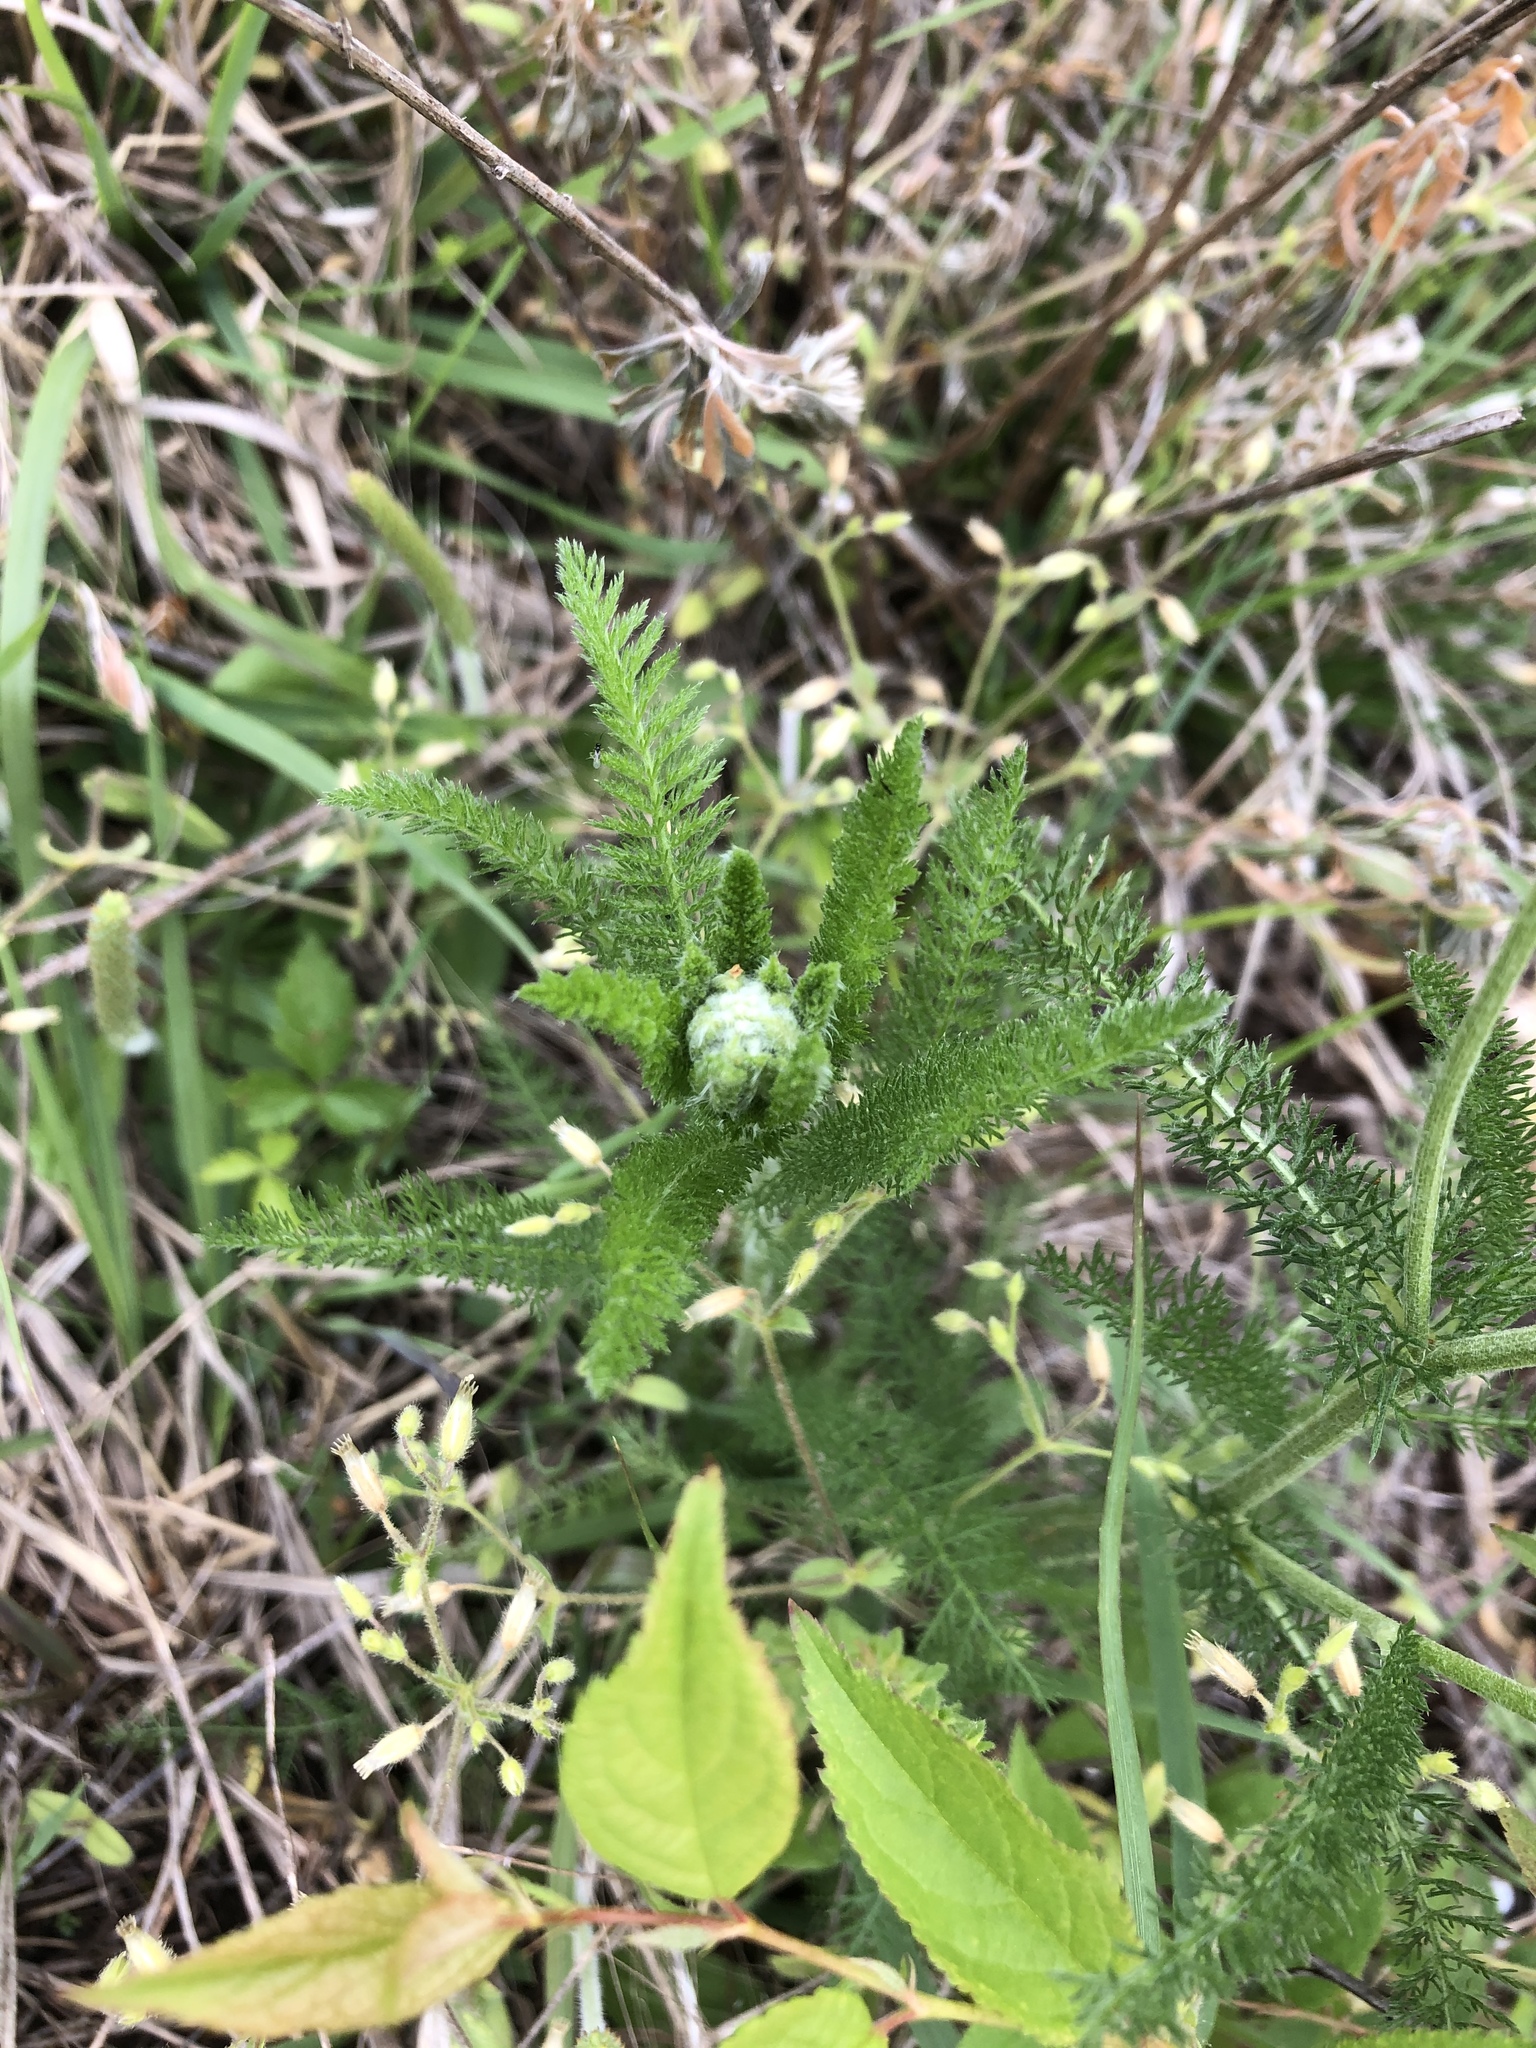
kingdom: Plantae
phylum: Tracheophyta
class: Magnoliopsida
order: Asterales
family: Asteraceae
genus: Achillea
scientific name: Achillea millefolium
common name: Yarrow
